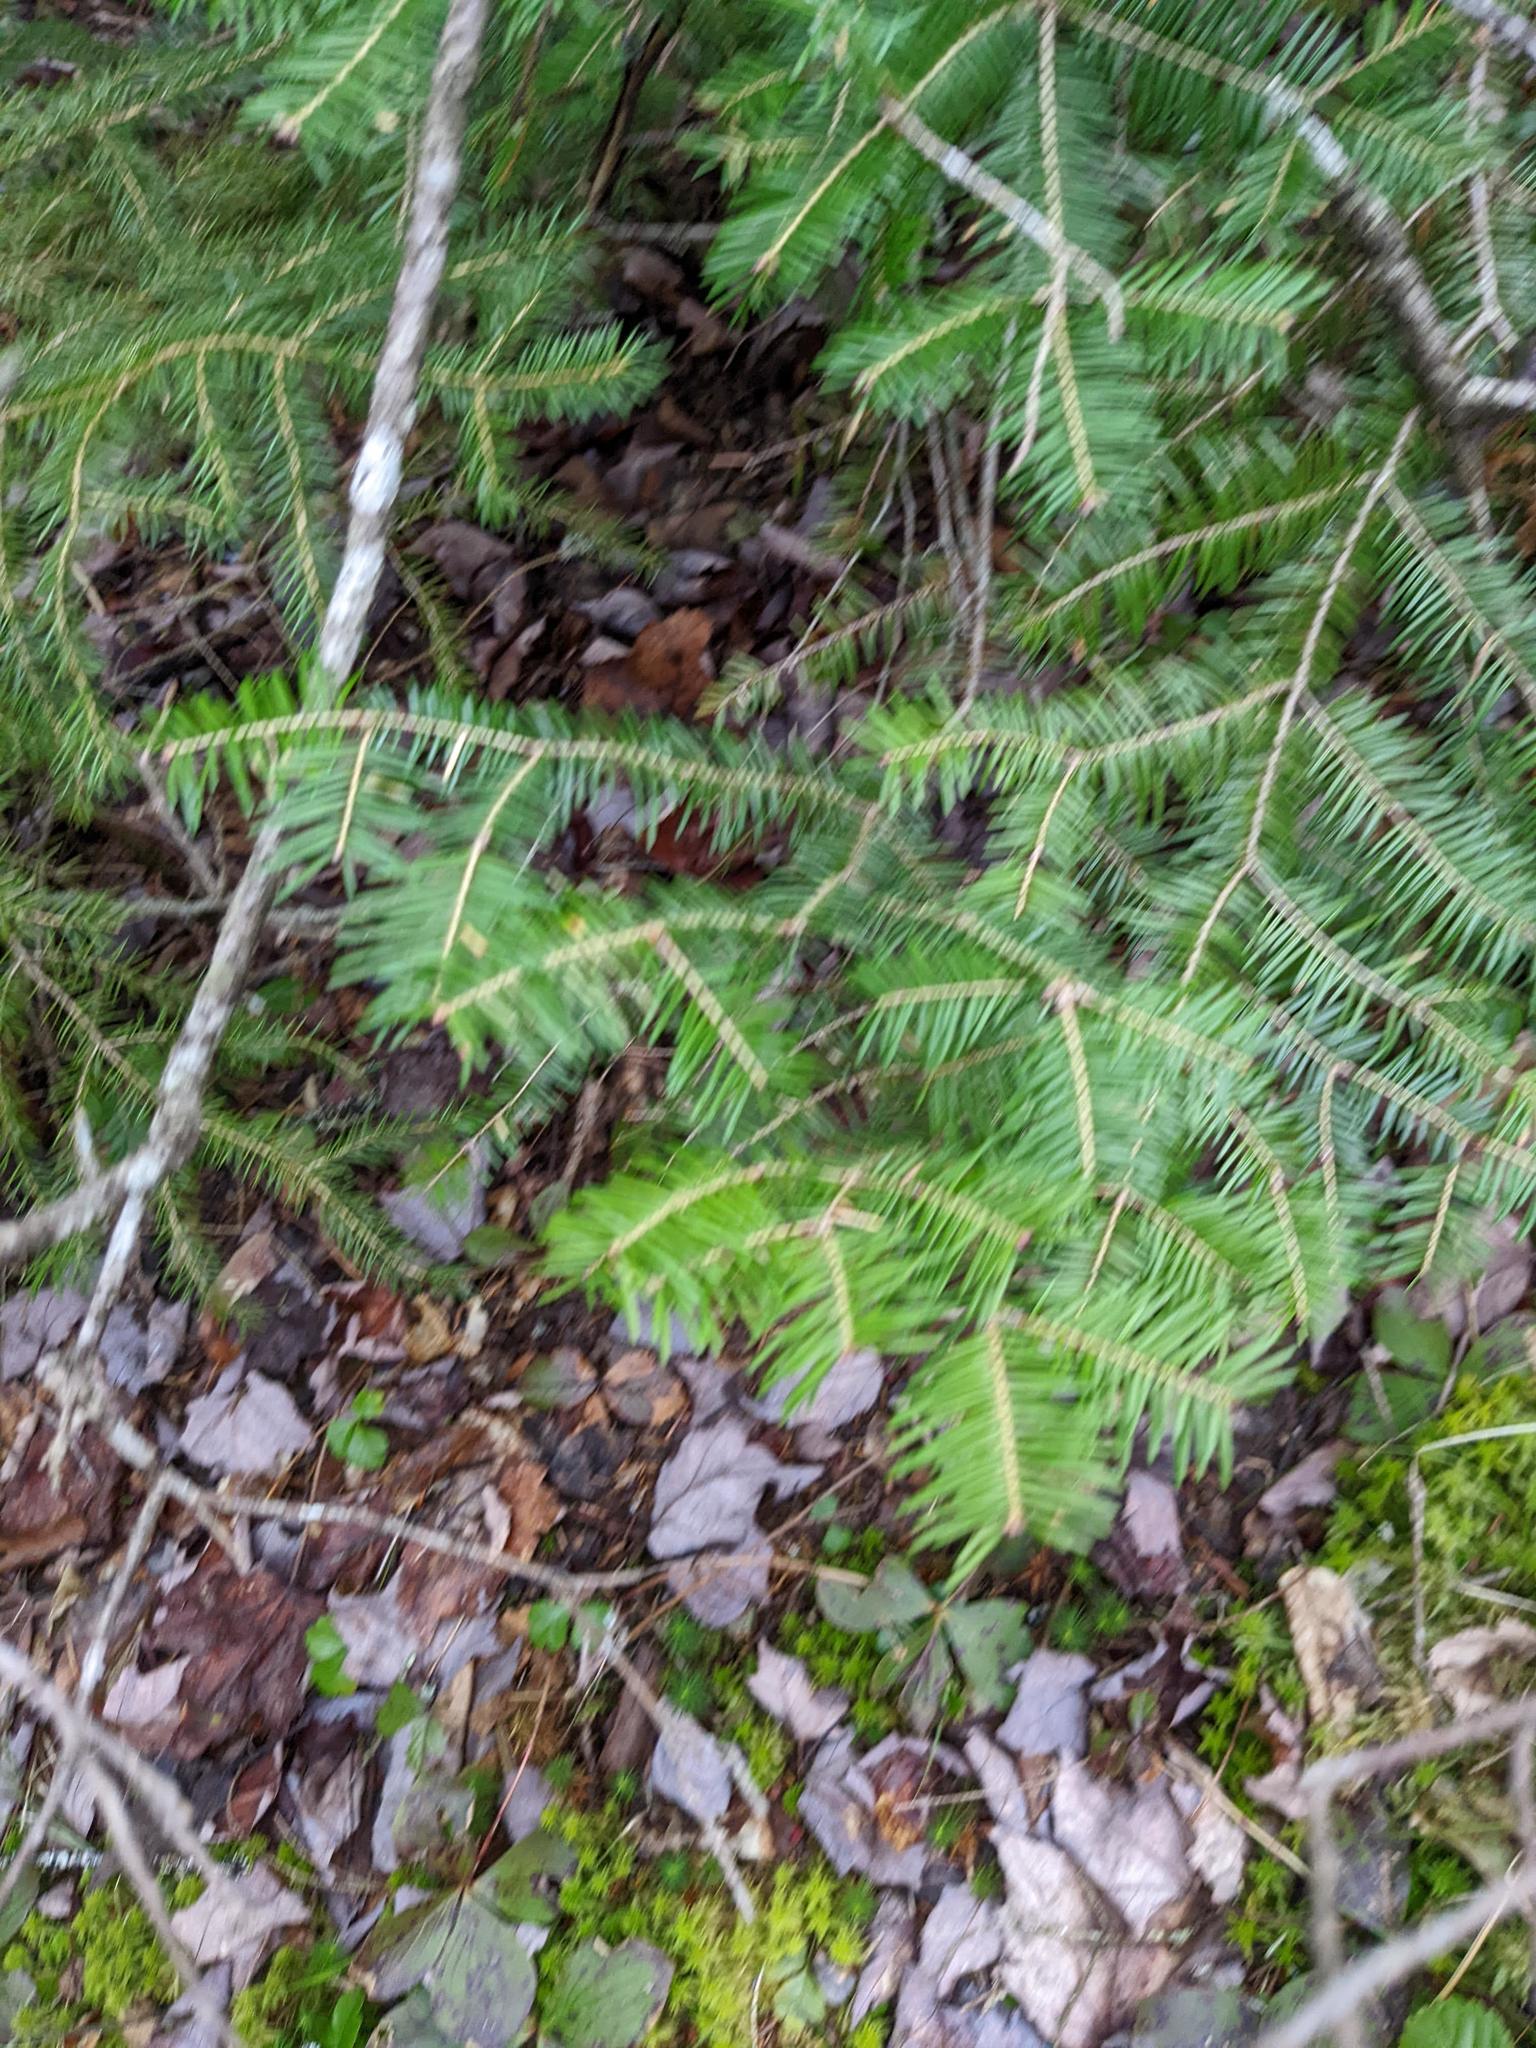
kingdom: Plantae
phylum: Tracheophyta
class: Pinopsida
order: Pinales
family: Pinaceae
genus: Abies
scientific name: Abies balsamea
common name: Balsam fir
